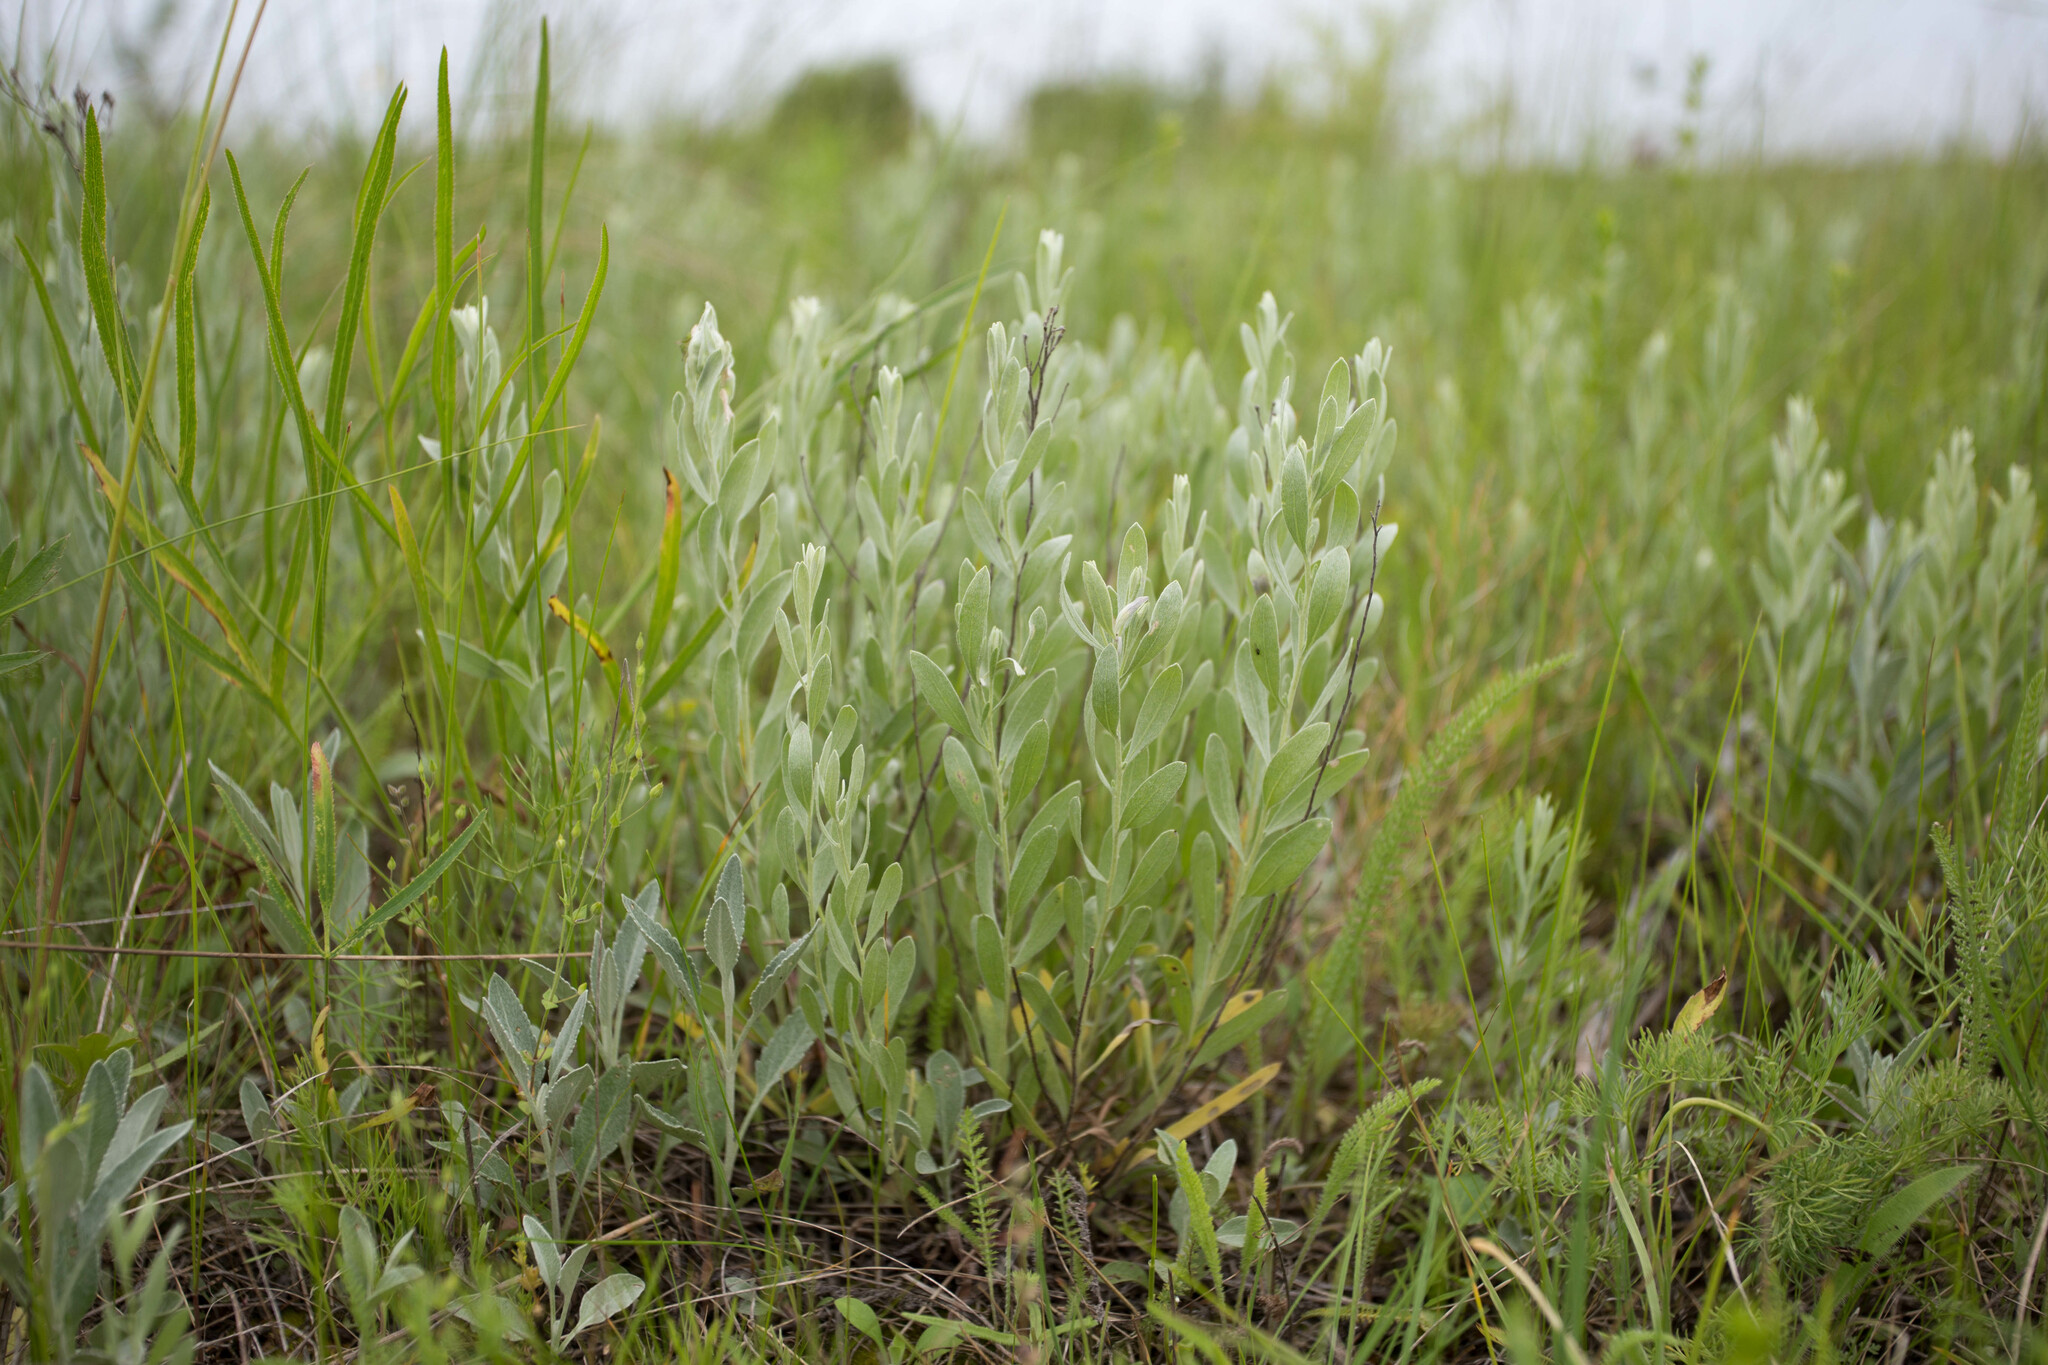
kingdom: Plantae
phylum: Tracheophyta
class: Magnoliopsida
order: Asterales
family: Asteraceae
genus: Galatella
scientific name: Galatella villosa
